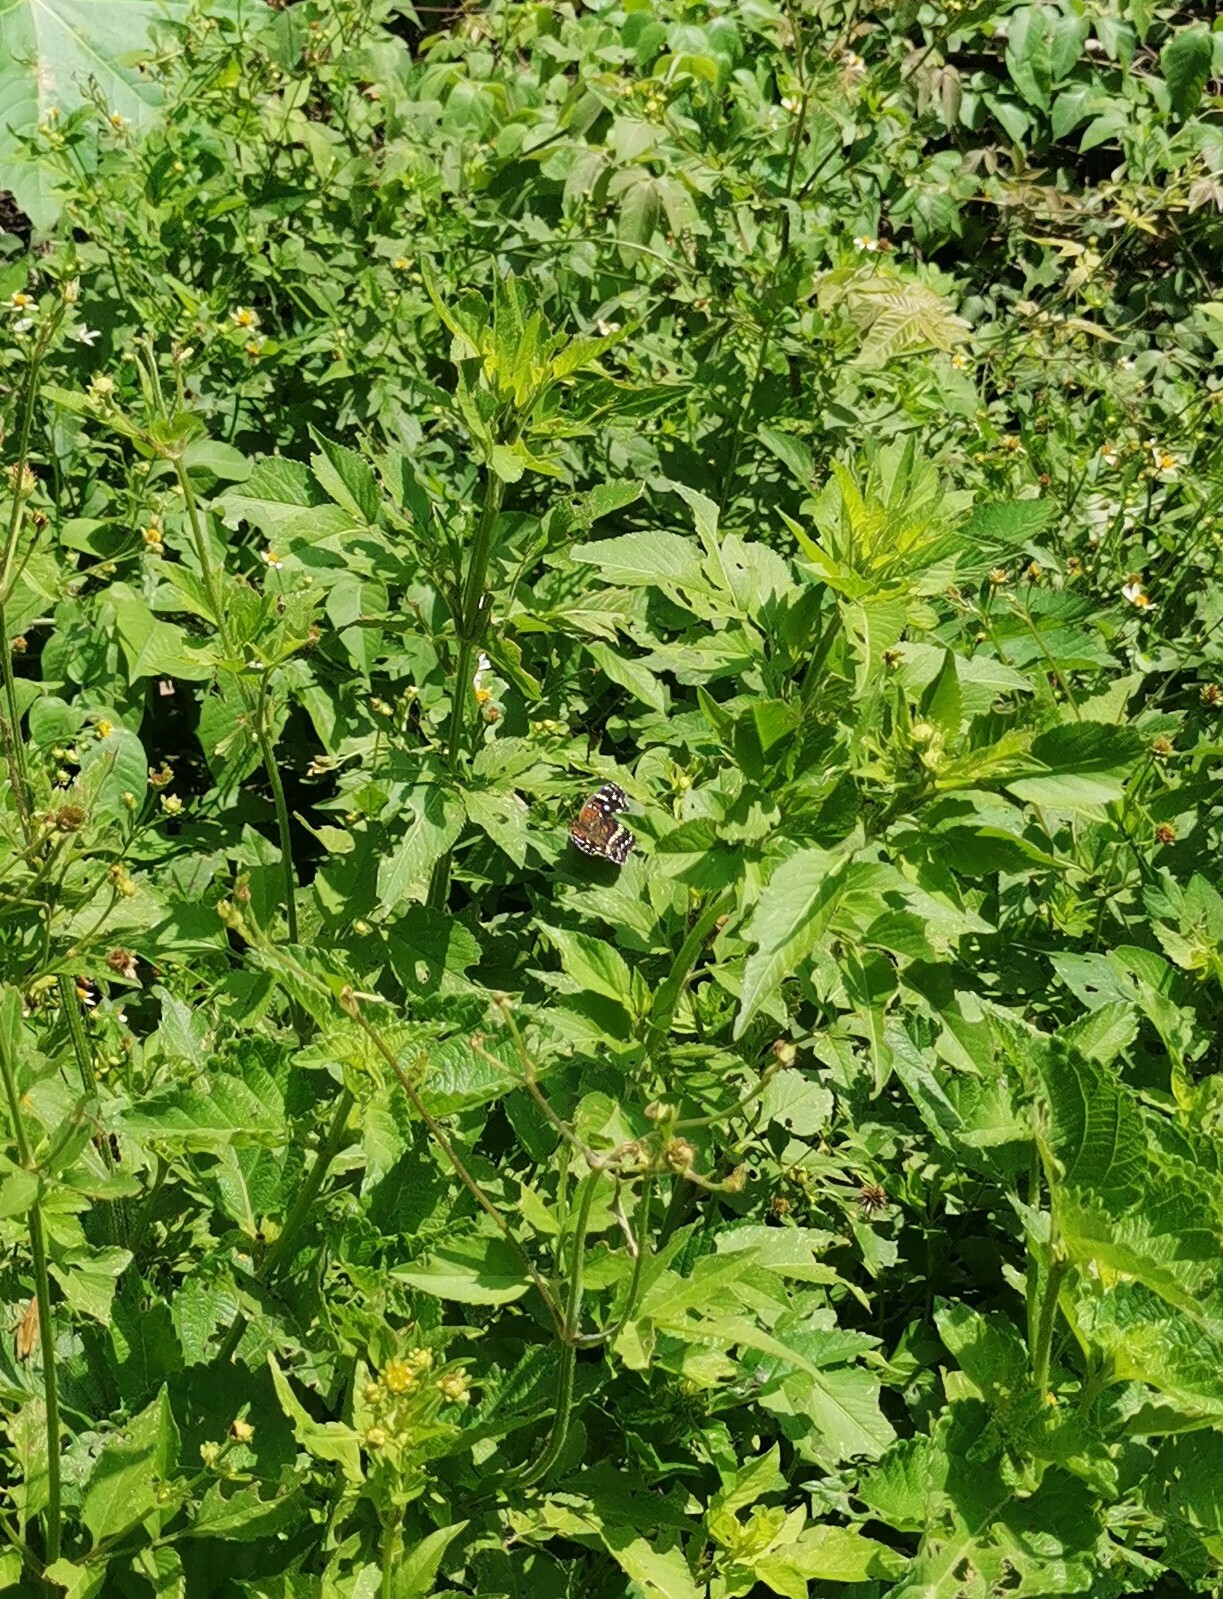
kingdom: Animalia
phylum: Arthropoda
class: Insecta
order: Lepidoptera
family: Nymphalidae
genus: Anthanassa
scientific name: Anthanassa texana
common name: Texan crescent
